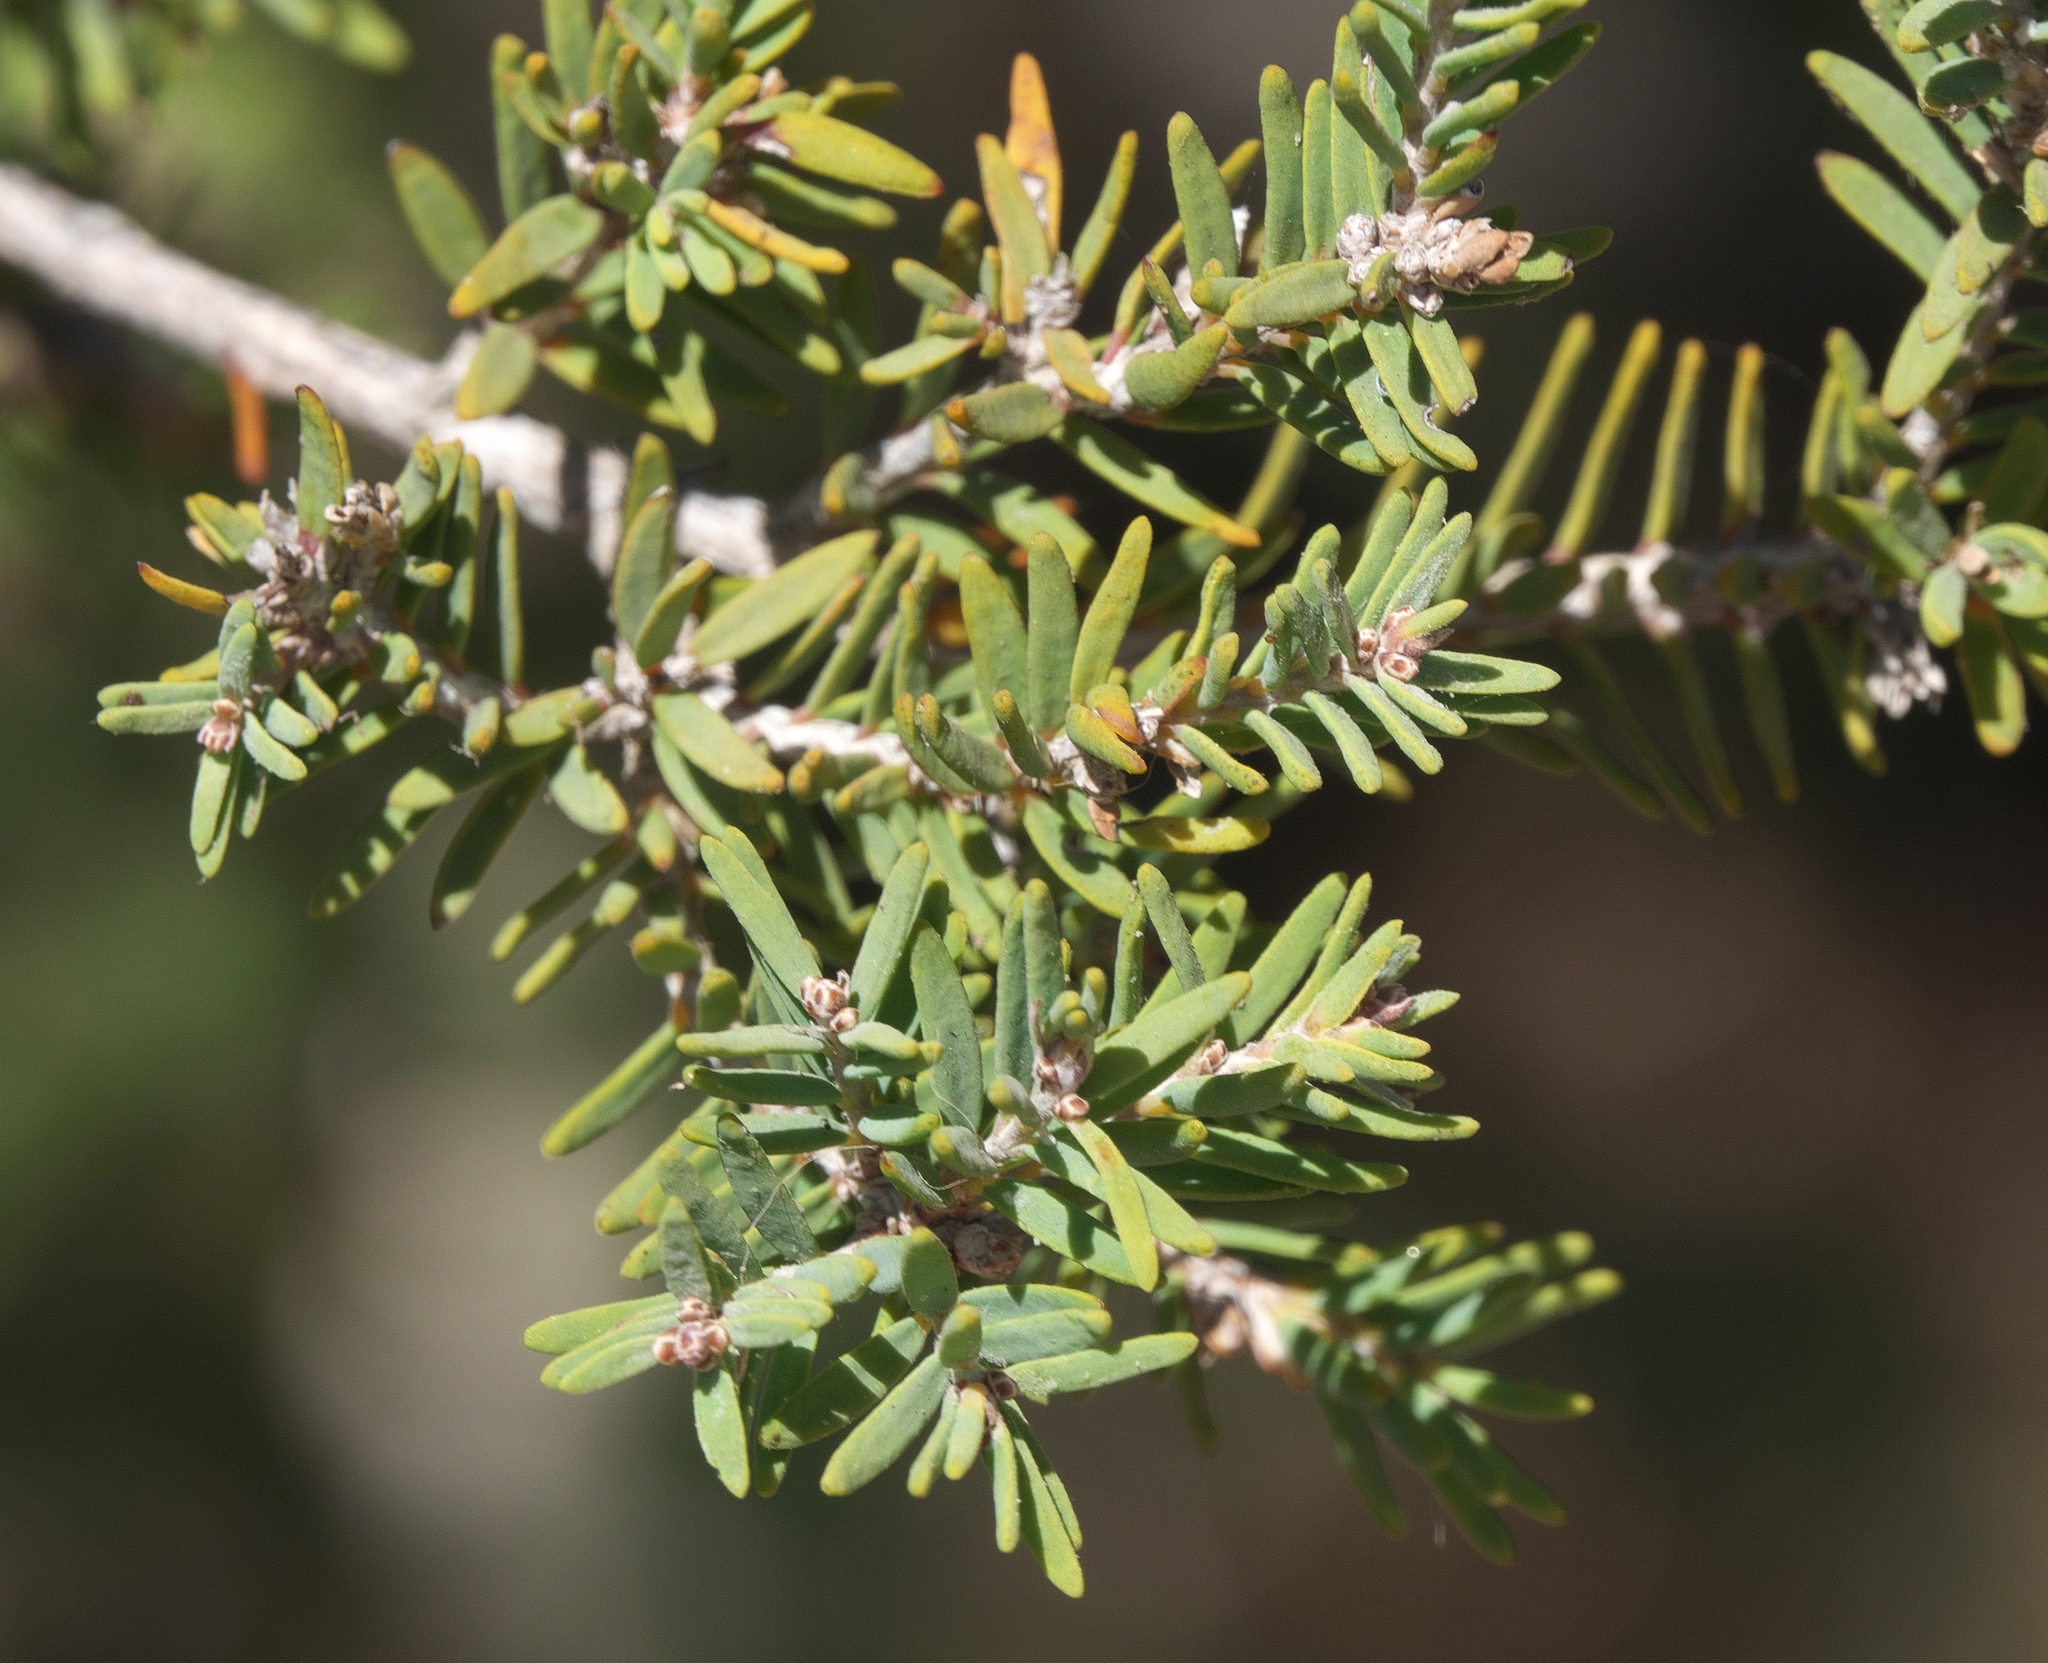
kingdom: Plantae
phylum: Tracheophyta
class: Magnoliopsida
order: Myrtales
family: Myrtaceae
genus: Melaleuca
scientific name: Melaleuca cuticularis
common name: Saltwater paperbark
